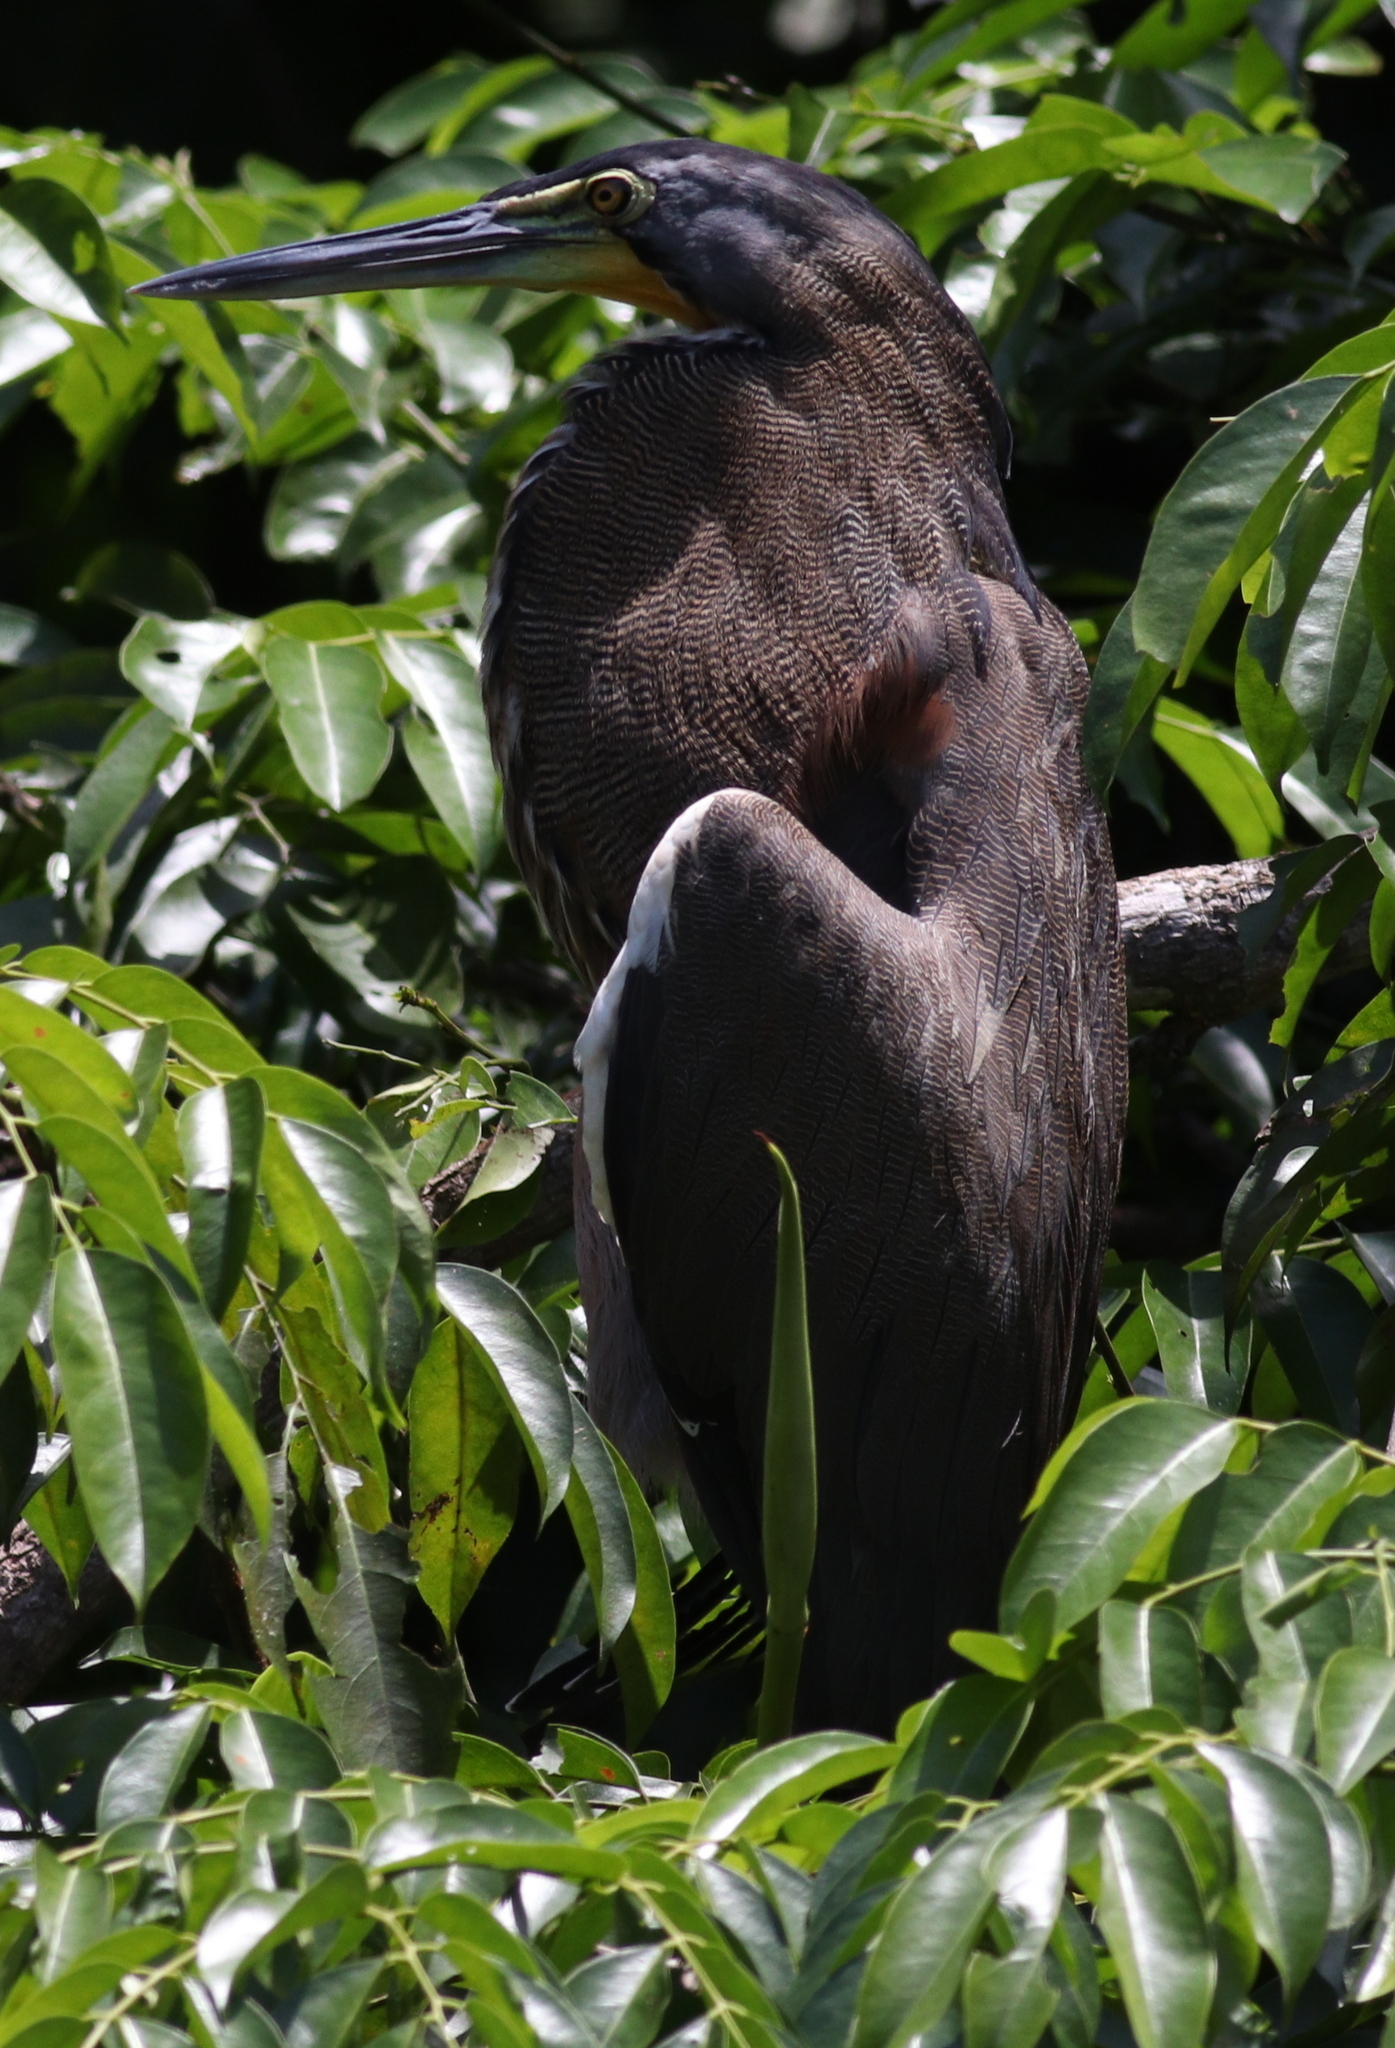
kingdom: Animalia
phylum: Chordata
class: Aves
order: Pelecaniformes
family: Ardeidae
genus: Tigrisoma
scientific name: Tigrisoma mexicanum
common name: Bare-throated tiger-heron
